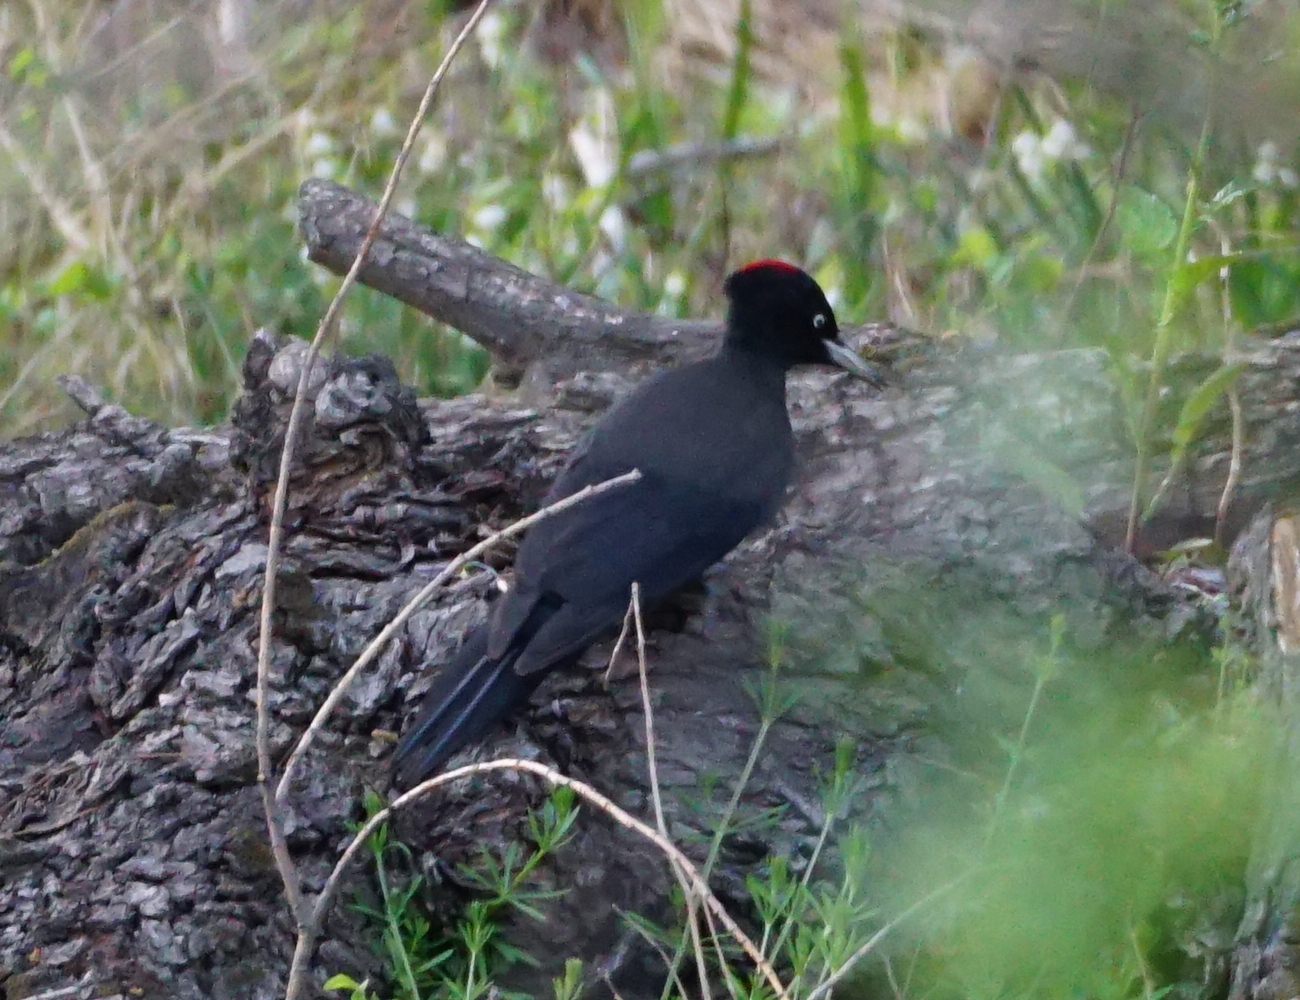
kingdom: Animalia
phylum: Chordata
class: Aves
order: Piciformes
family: Picidae
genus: Dryocopus
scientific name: Dryocopus martius
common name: Black woodpecker
